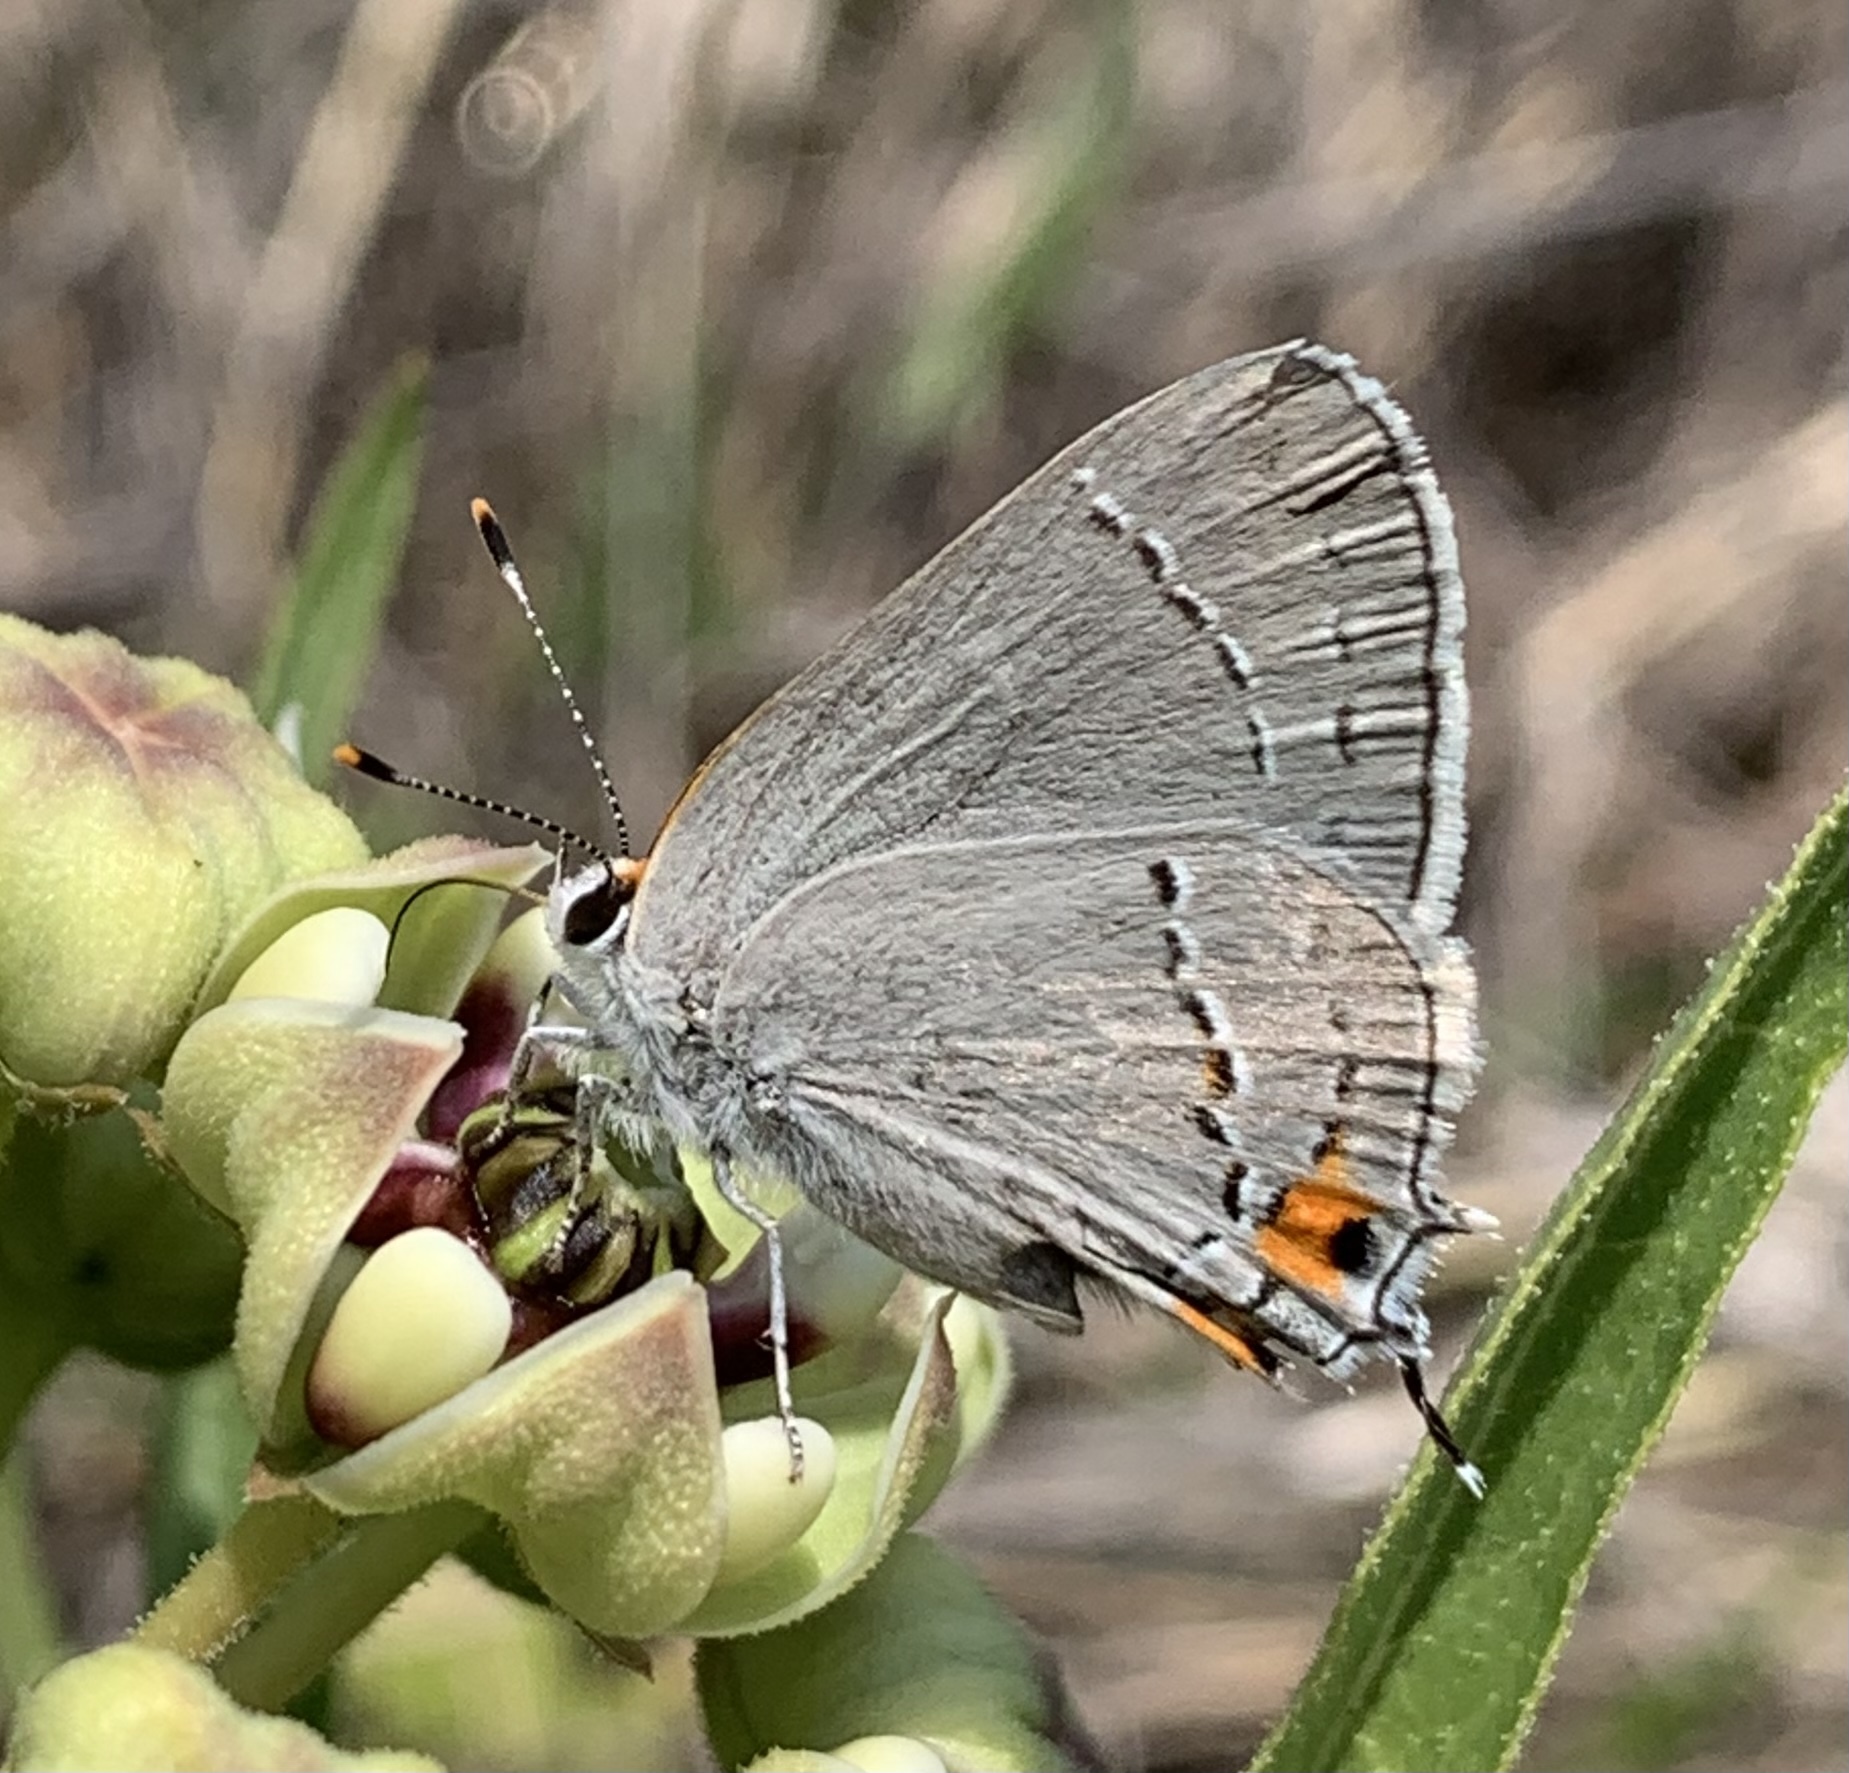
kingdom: Animalia
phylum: Arthropoda
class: Insecta
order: Lepidoptera
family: Lycaenidae
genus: Strymon
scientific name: Strymon melinus
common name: Gray hairstreak
